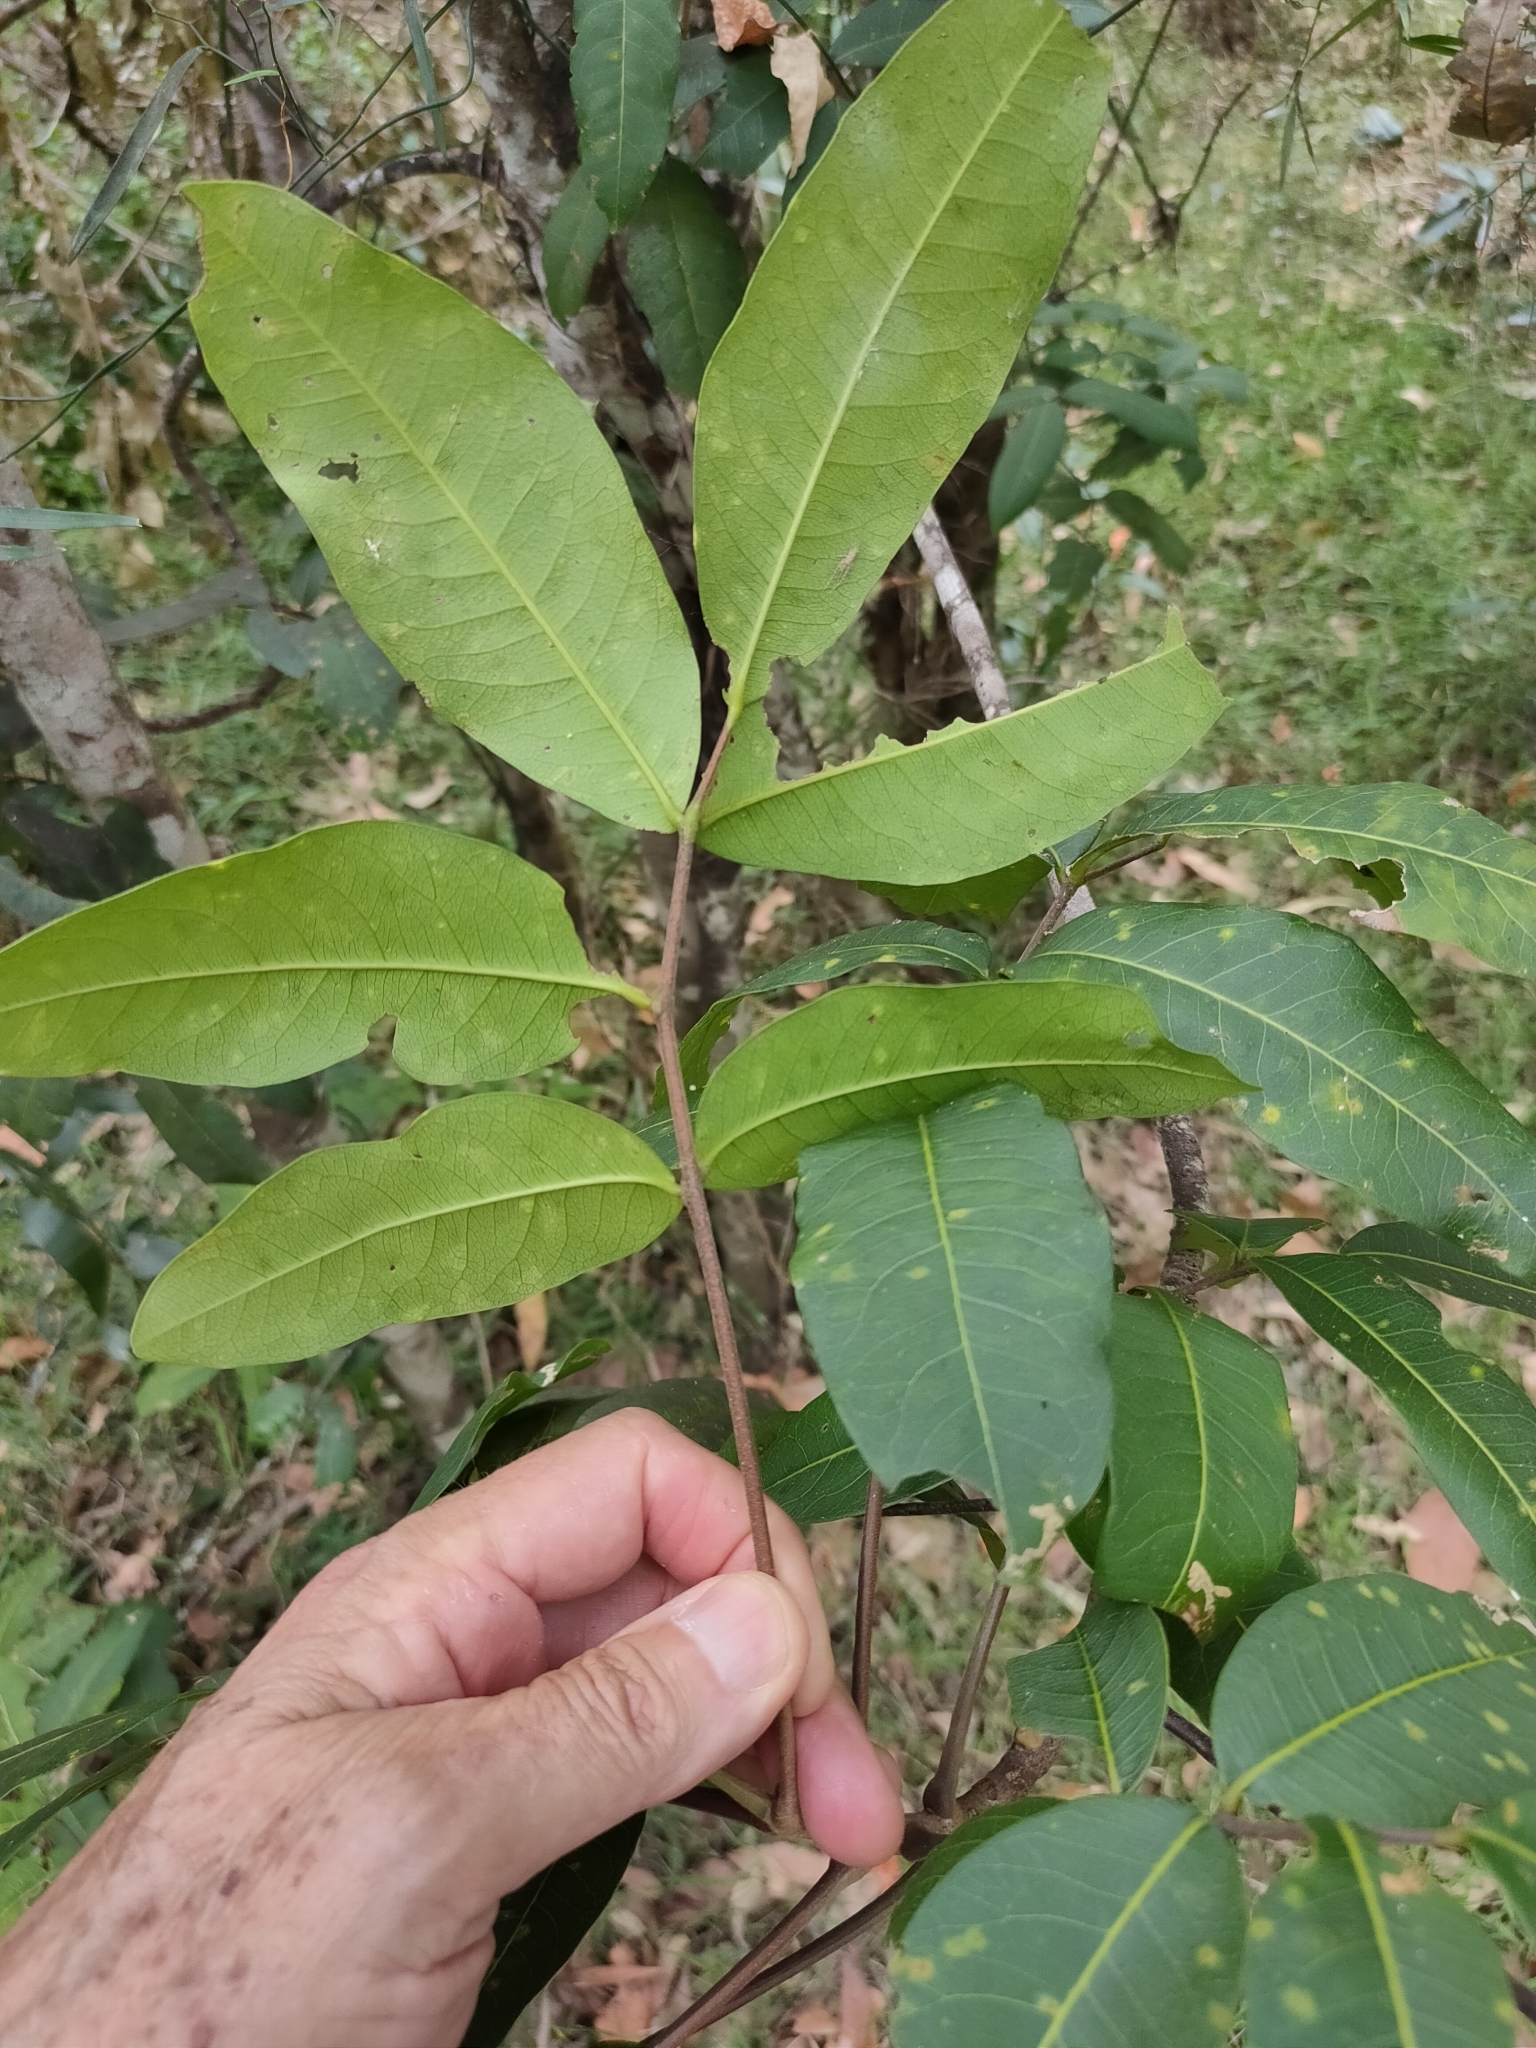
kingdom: Plantae
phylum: Tracheophyta
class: Magnoliopsida
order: Sapindales
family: Rutaceae
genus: Flindersia
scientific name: Flindersia bennettii
